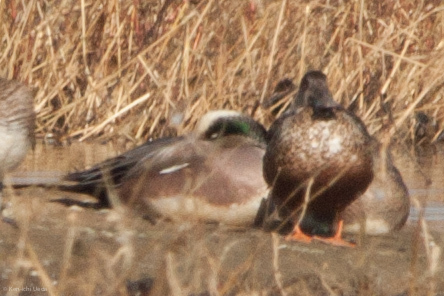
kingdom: Animalia
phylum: Chordata
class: Aves
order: Anseriformes
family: Anatidae
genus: Mareca
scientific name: Mareca americana
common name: American wigeon
